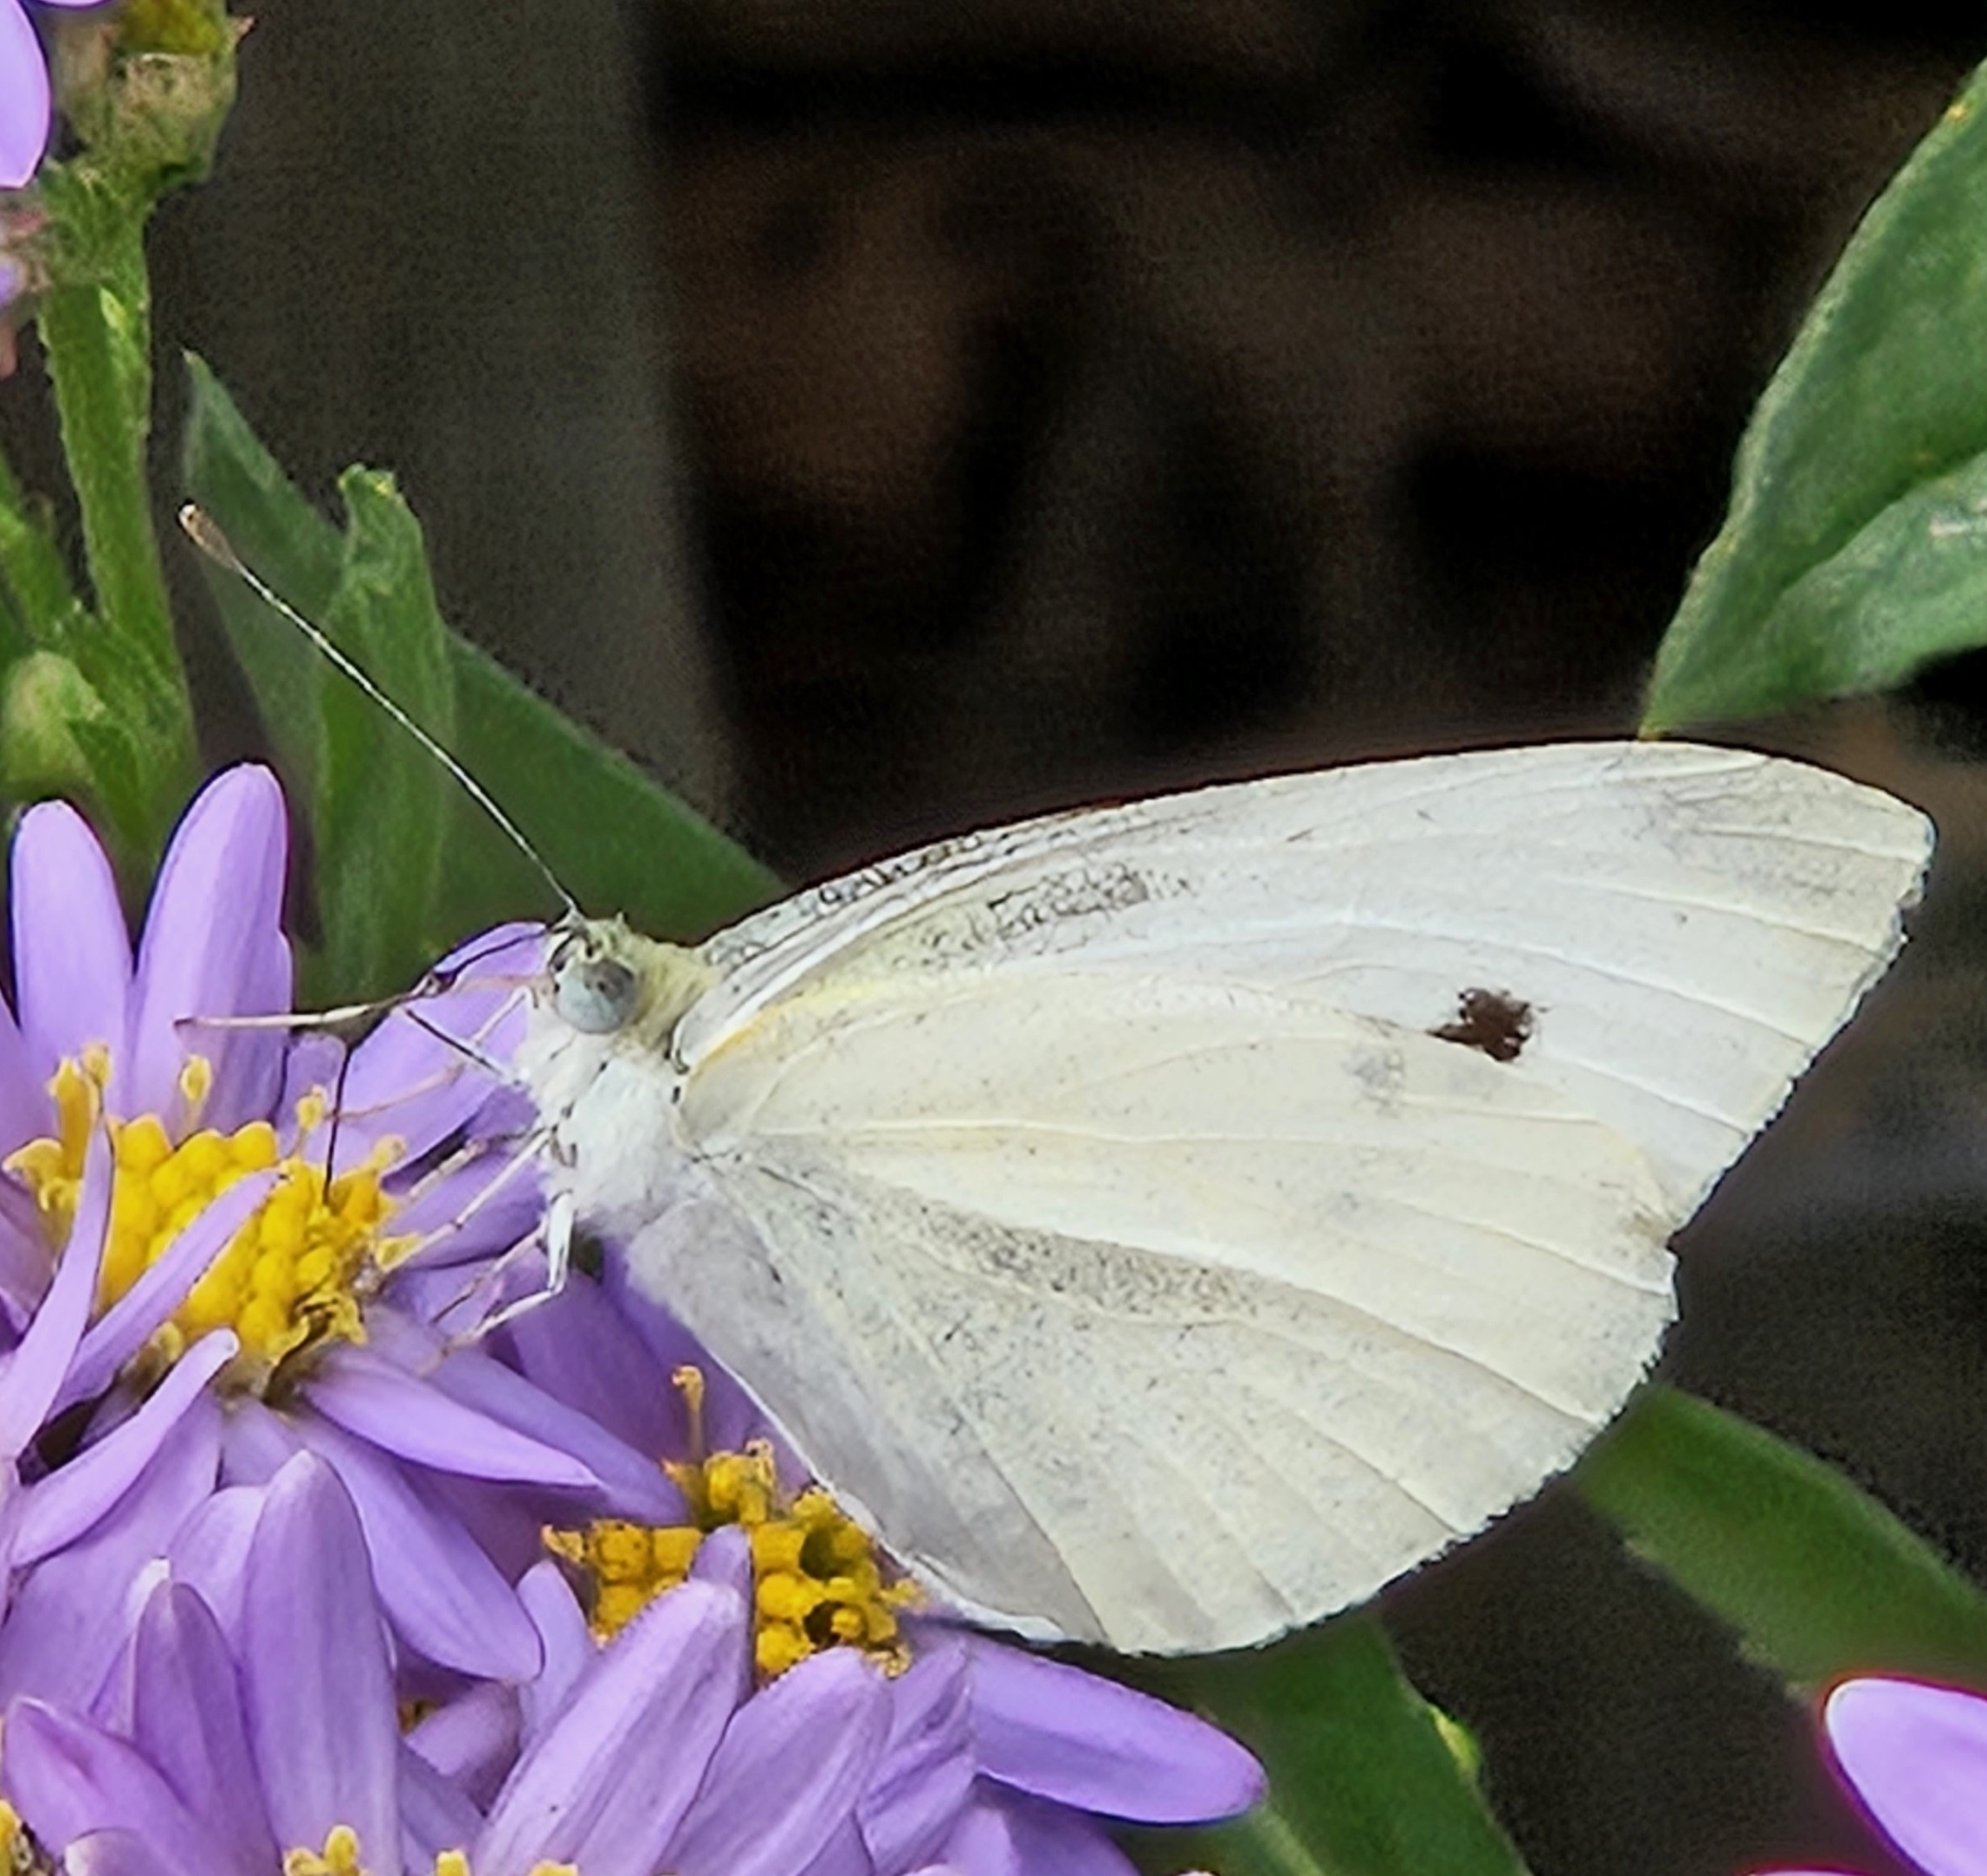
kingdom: Animalia
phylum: Arthropoda
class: Insecta
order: Lepidoptera
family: Pieridae
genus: Pieris
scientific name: Pieris rapae
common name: Small white
